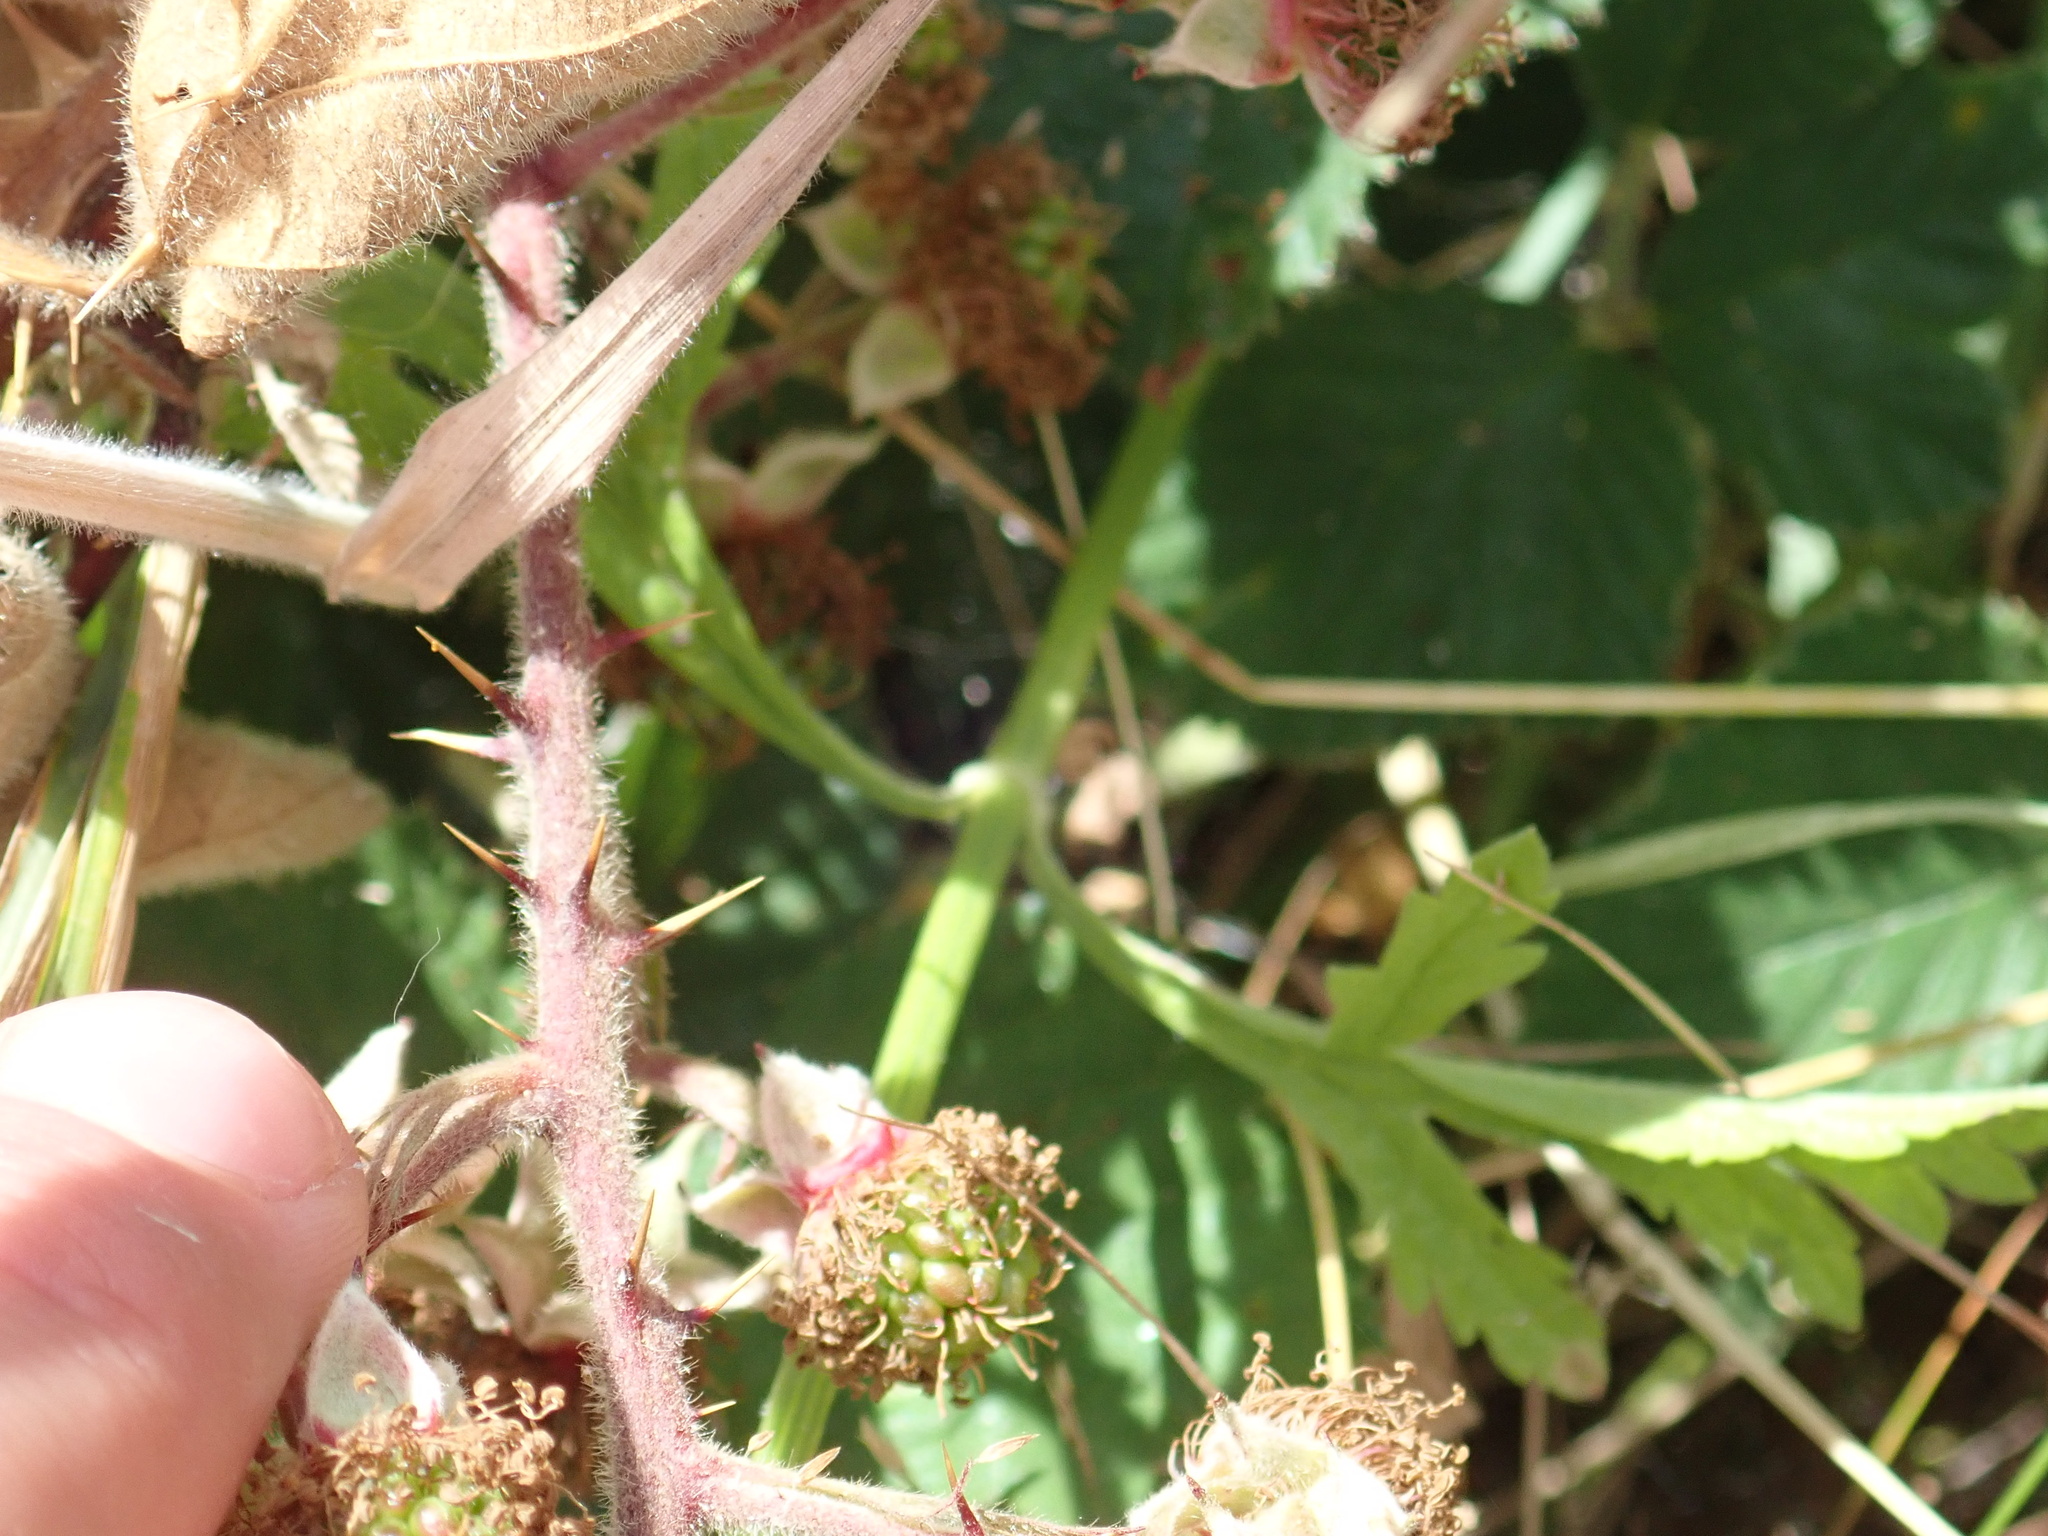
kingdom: Plantae
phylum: Tracheophyta
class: Magnoliopsida
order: Lamiales
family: Verbenaceae
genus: Verbena
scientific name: Verbena officinalis
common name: Vervain
